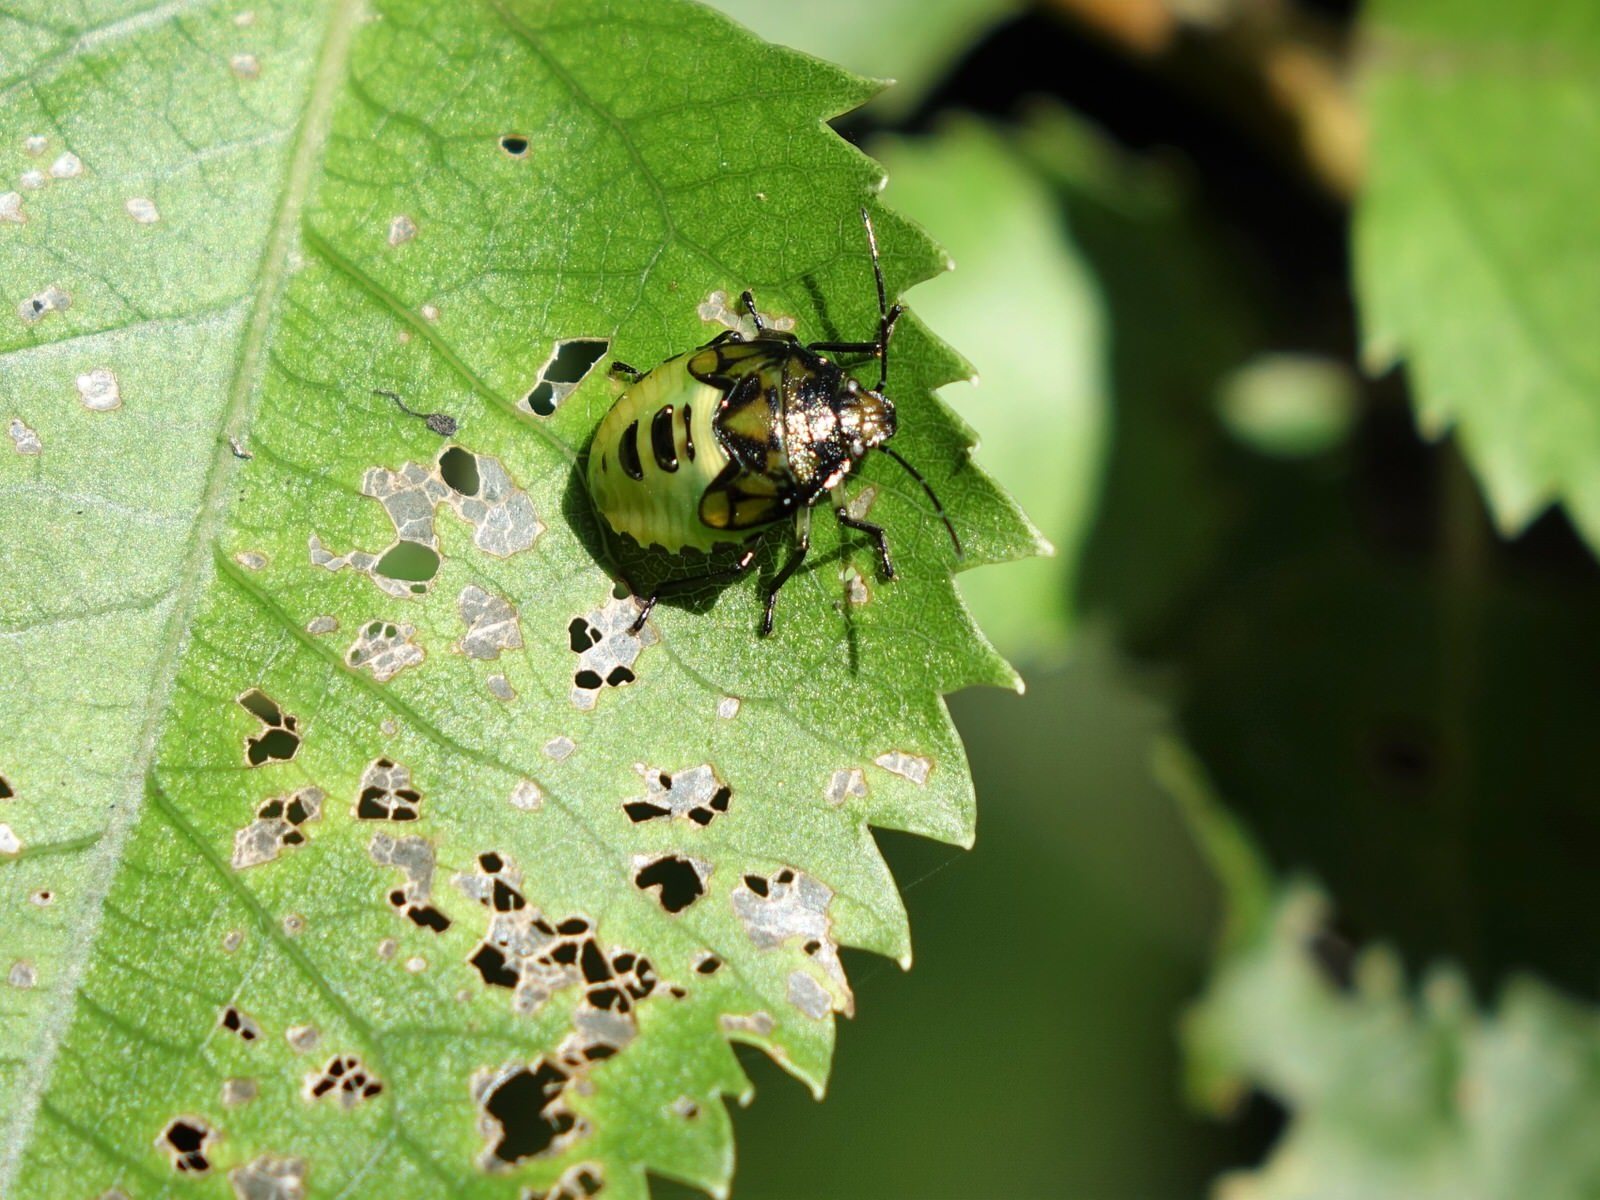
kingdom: Animalia
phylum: Arthropoda
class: Insecta
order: Hemiptera
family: Pentatomidae
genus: Glaucias
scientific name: Glaucias amyota
